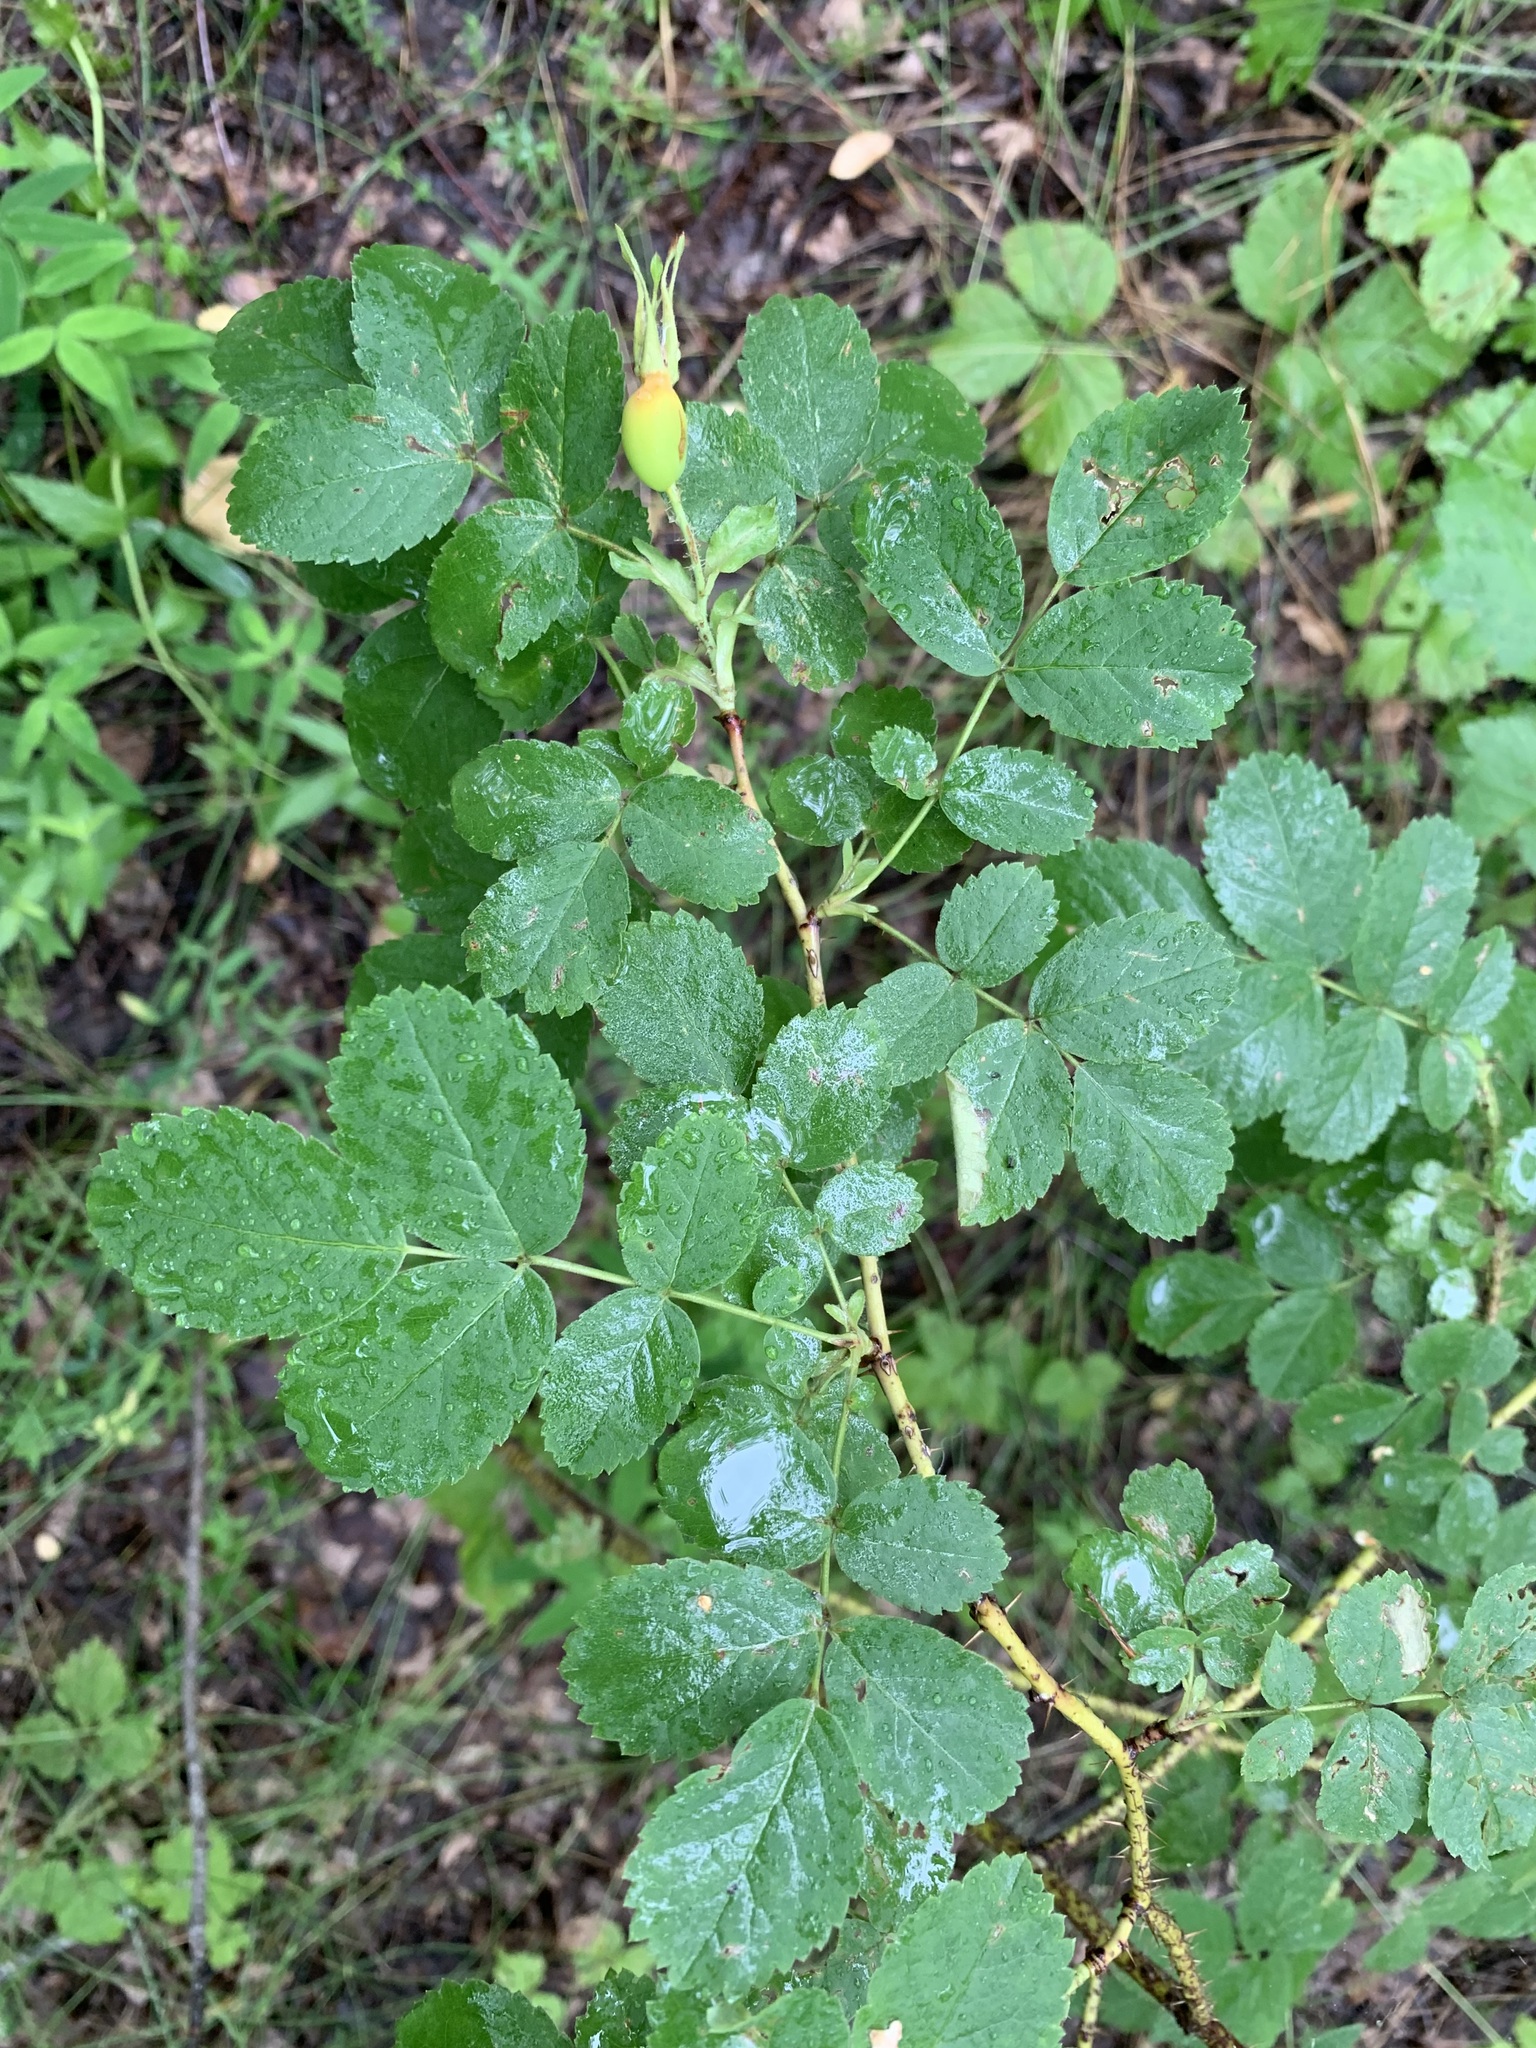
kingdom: Plantae
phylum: Tracheophyta
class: Magnoliopsida
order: Rosales
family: Rosaceae
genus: Rosa
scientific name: Rosa acicularis
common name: Prickly rose
